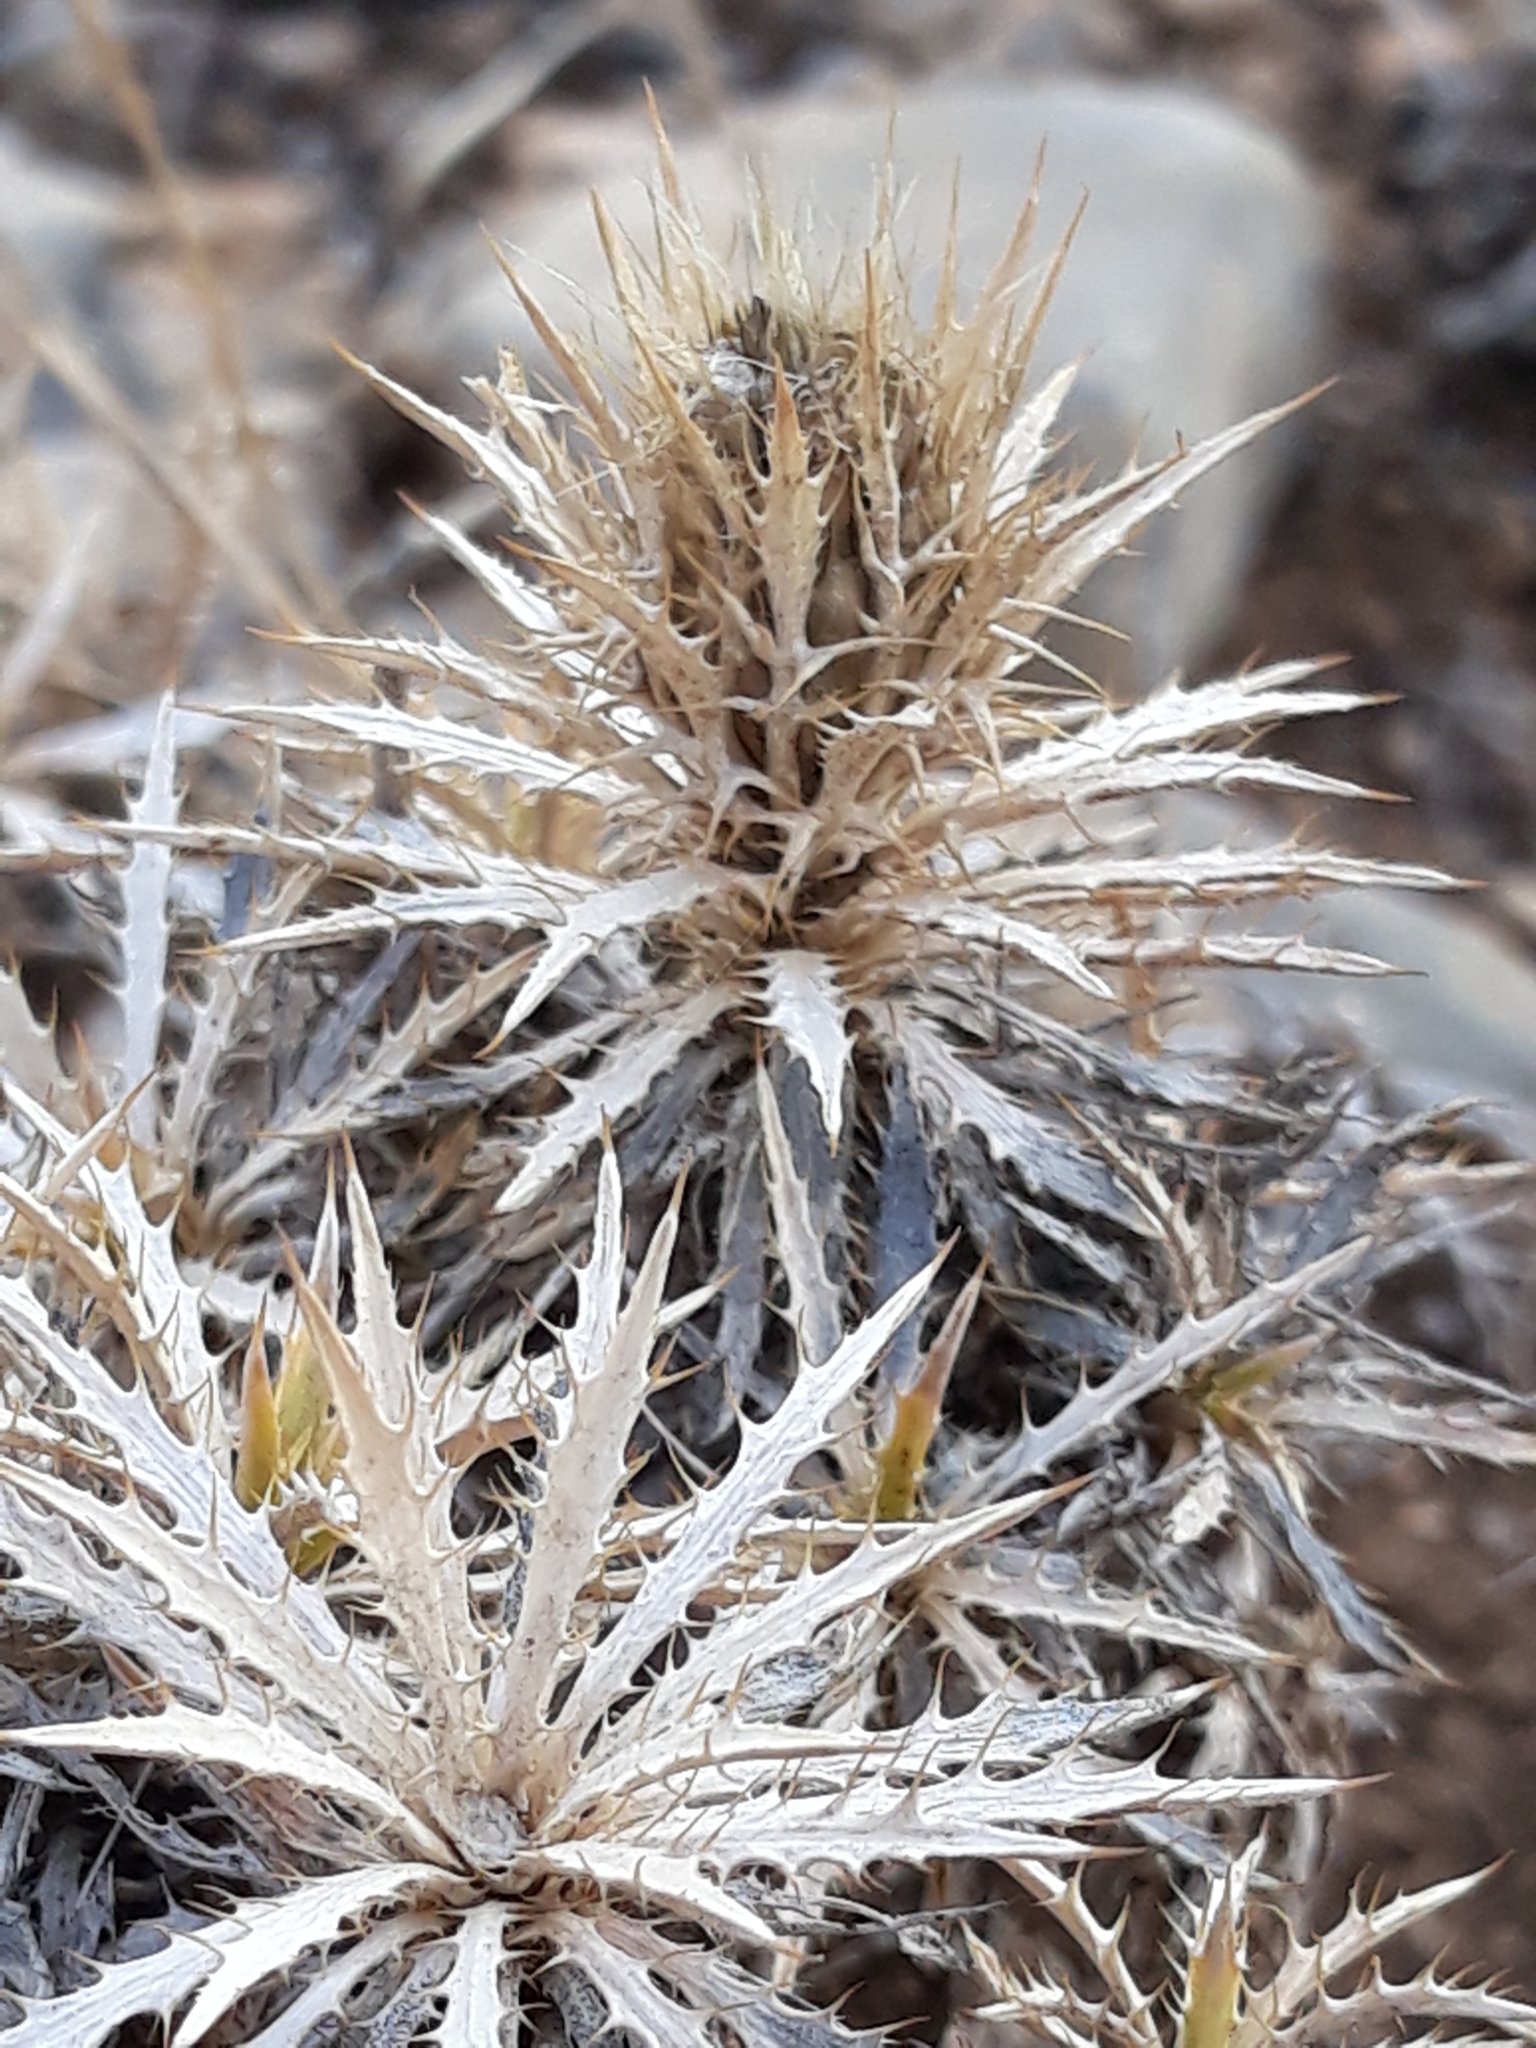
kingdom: Plantae
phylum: Tracheophyta
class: Magnoliopsida
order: Asterales
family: Asteraceae
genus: Atractylis
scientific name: Atractylis caespitosa
